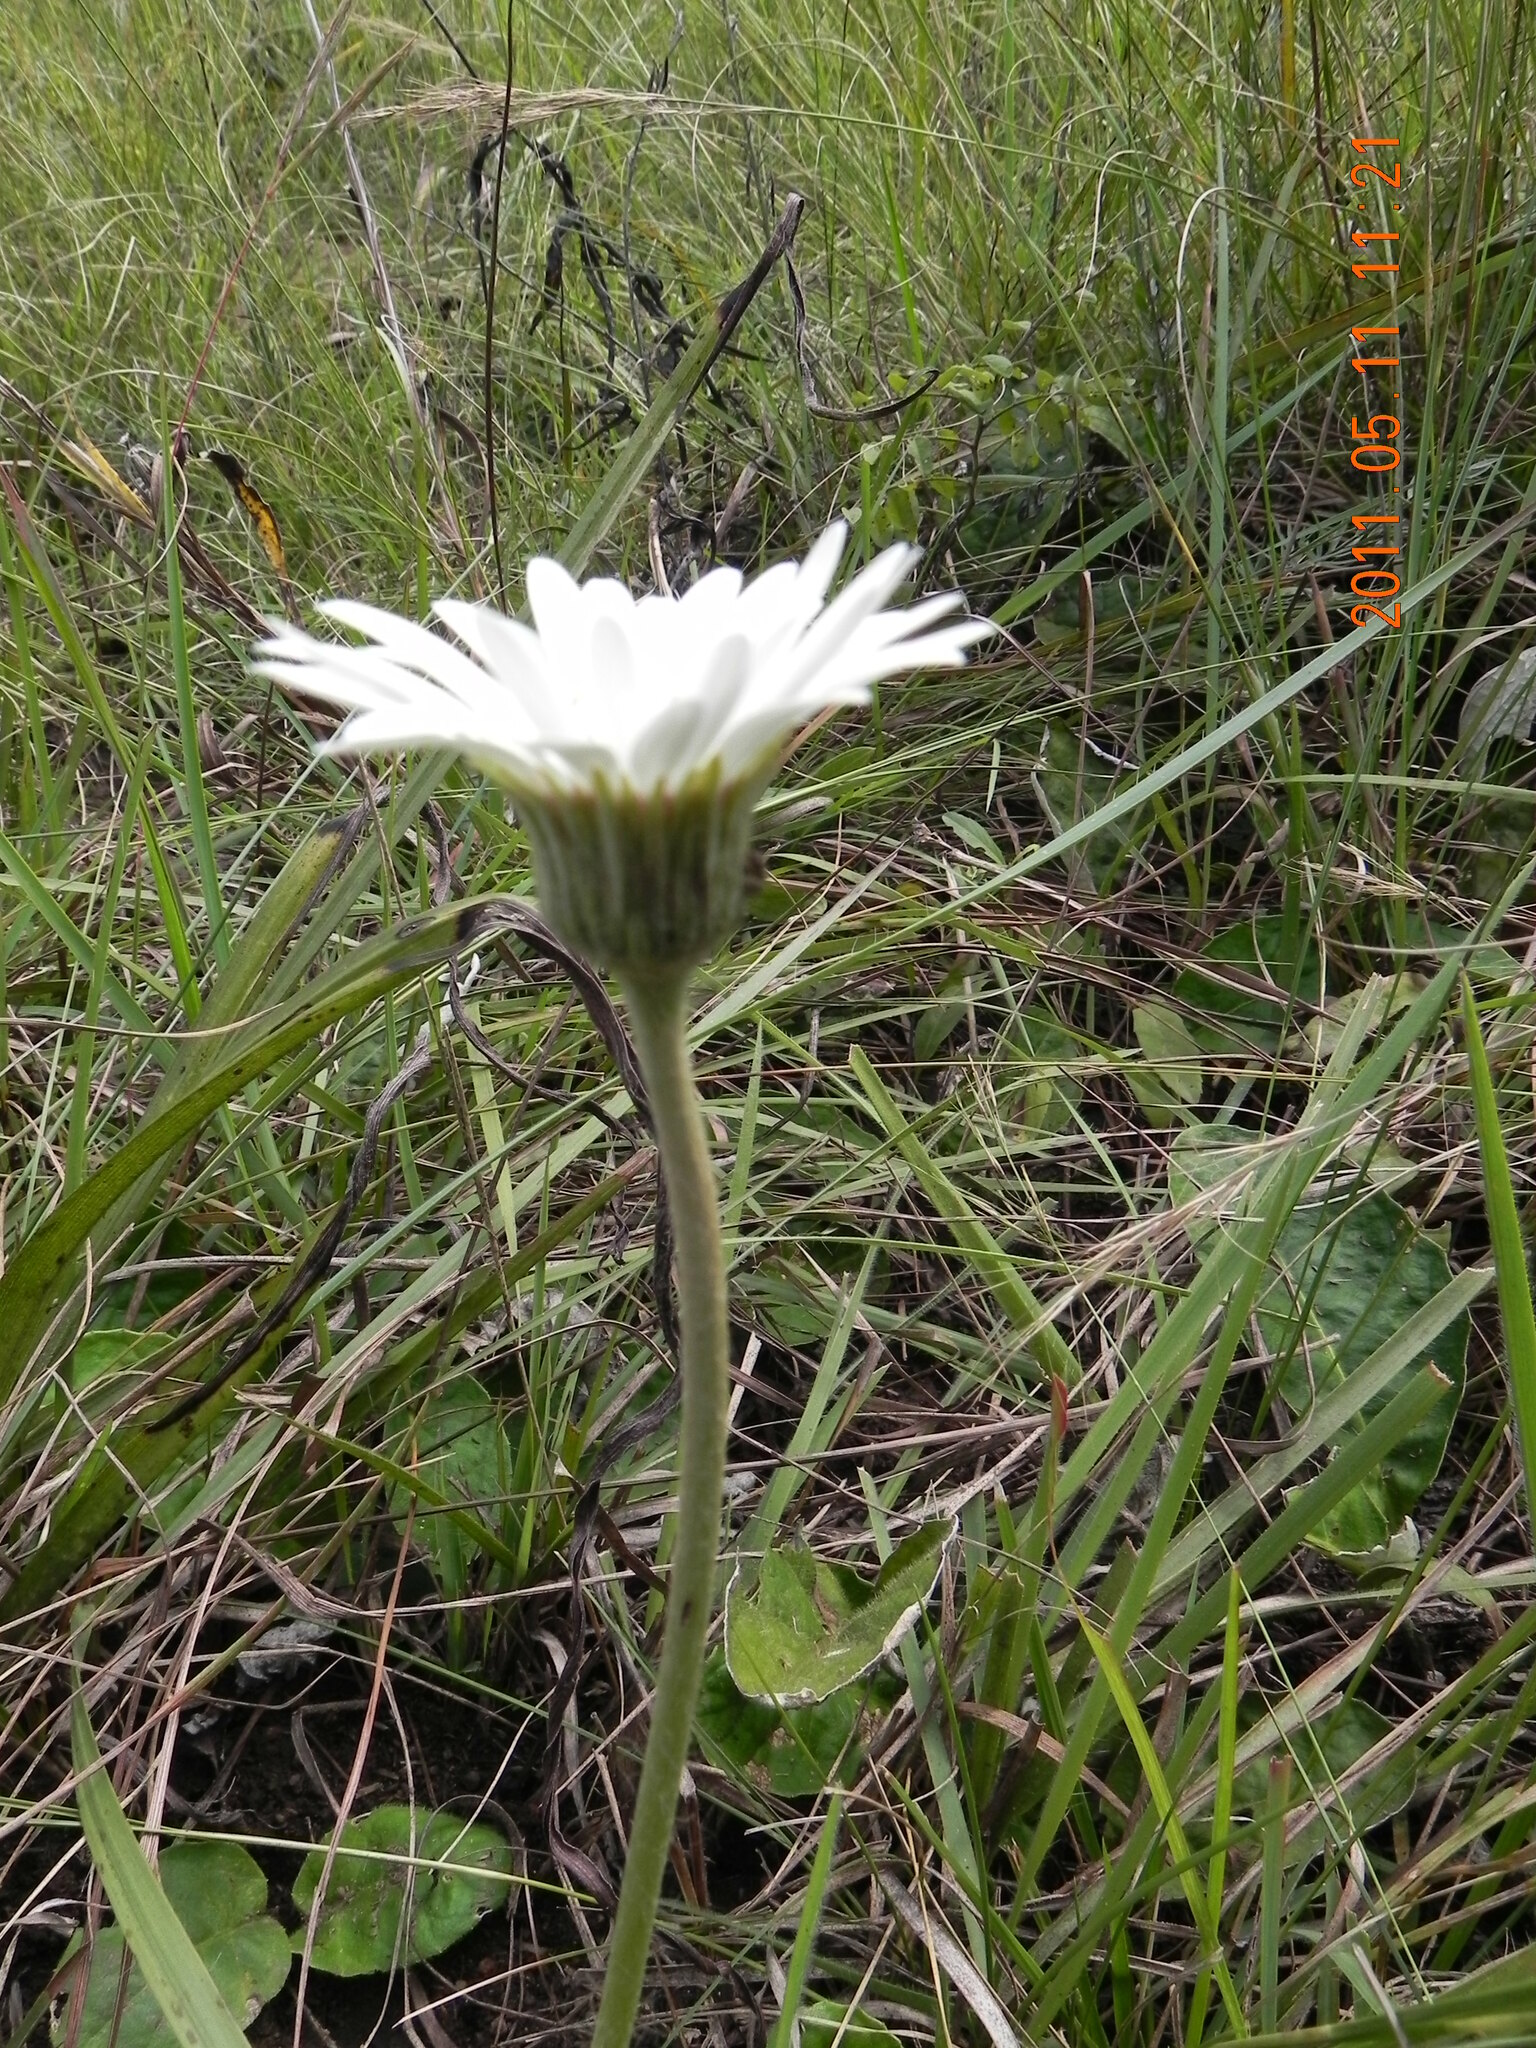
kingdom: Plantae
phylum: Tracheophyta
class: Magnoliopsida
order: Asterales
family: Asteraceae
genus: Gerbera
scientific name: Gerbera ambigua
